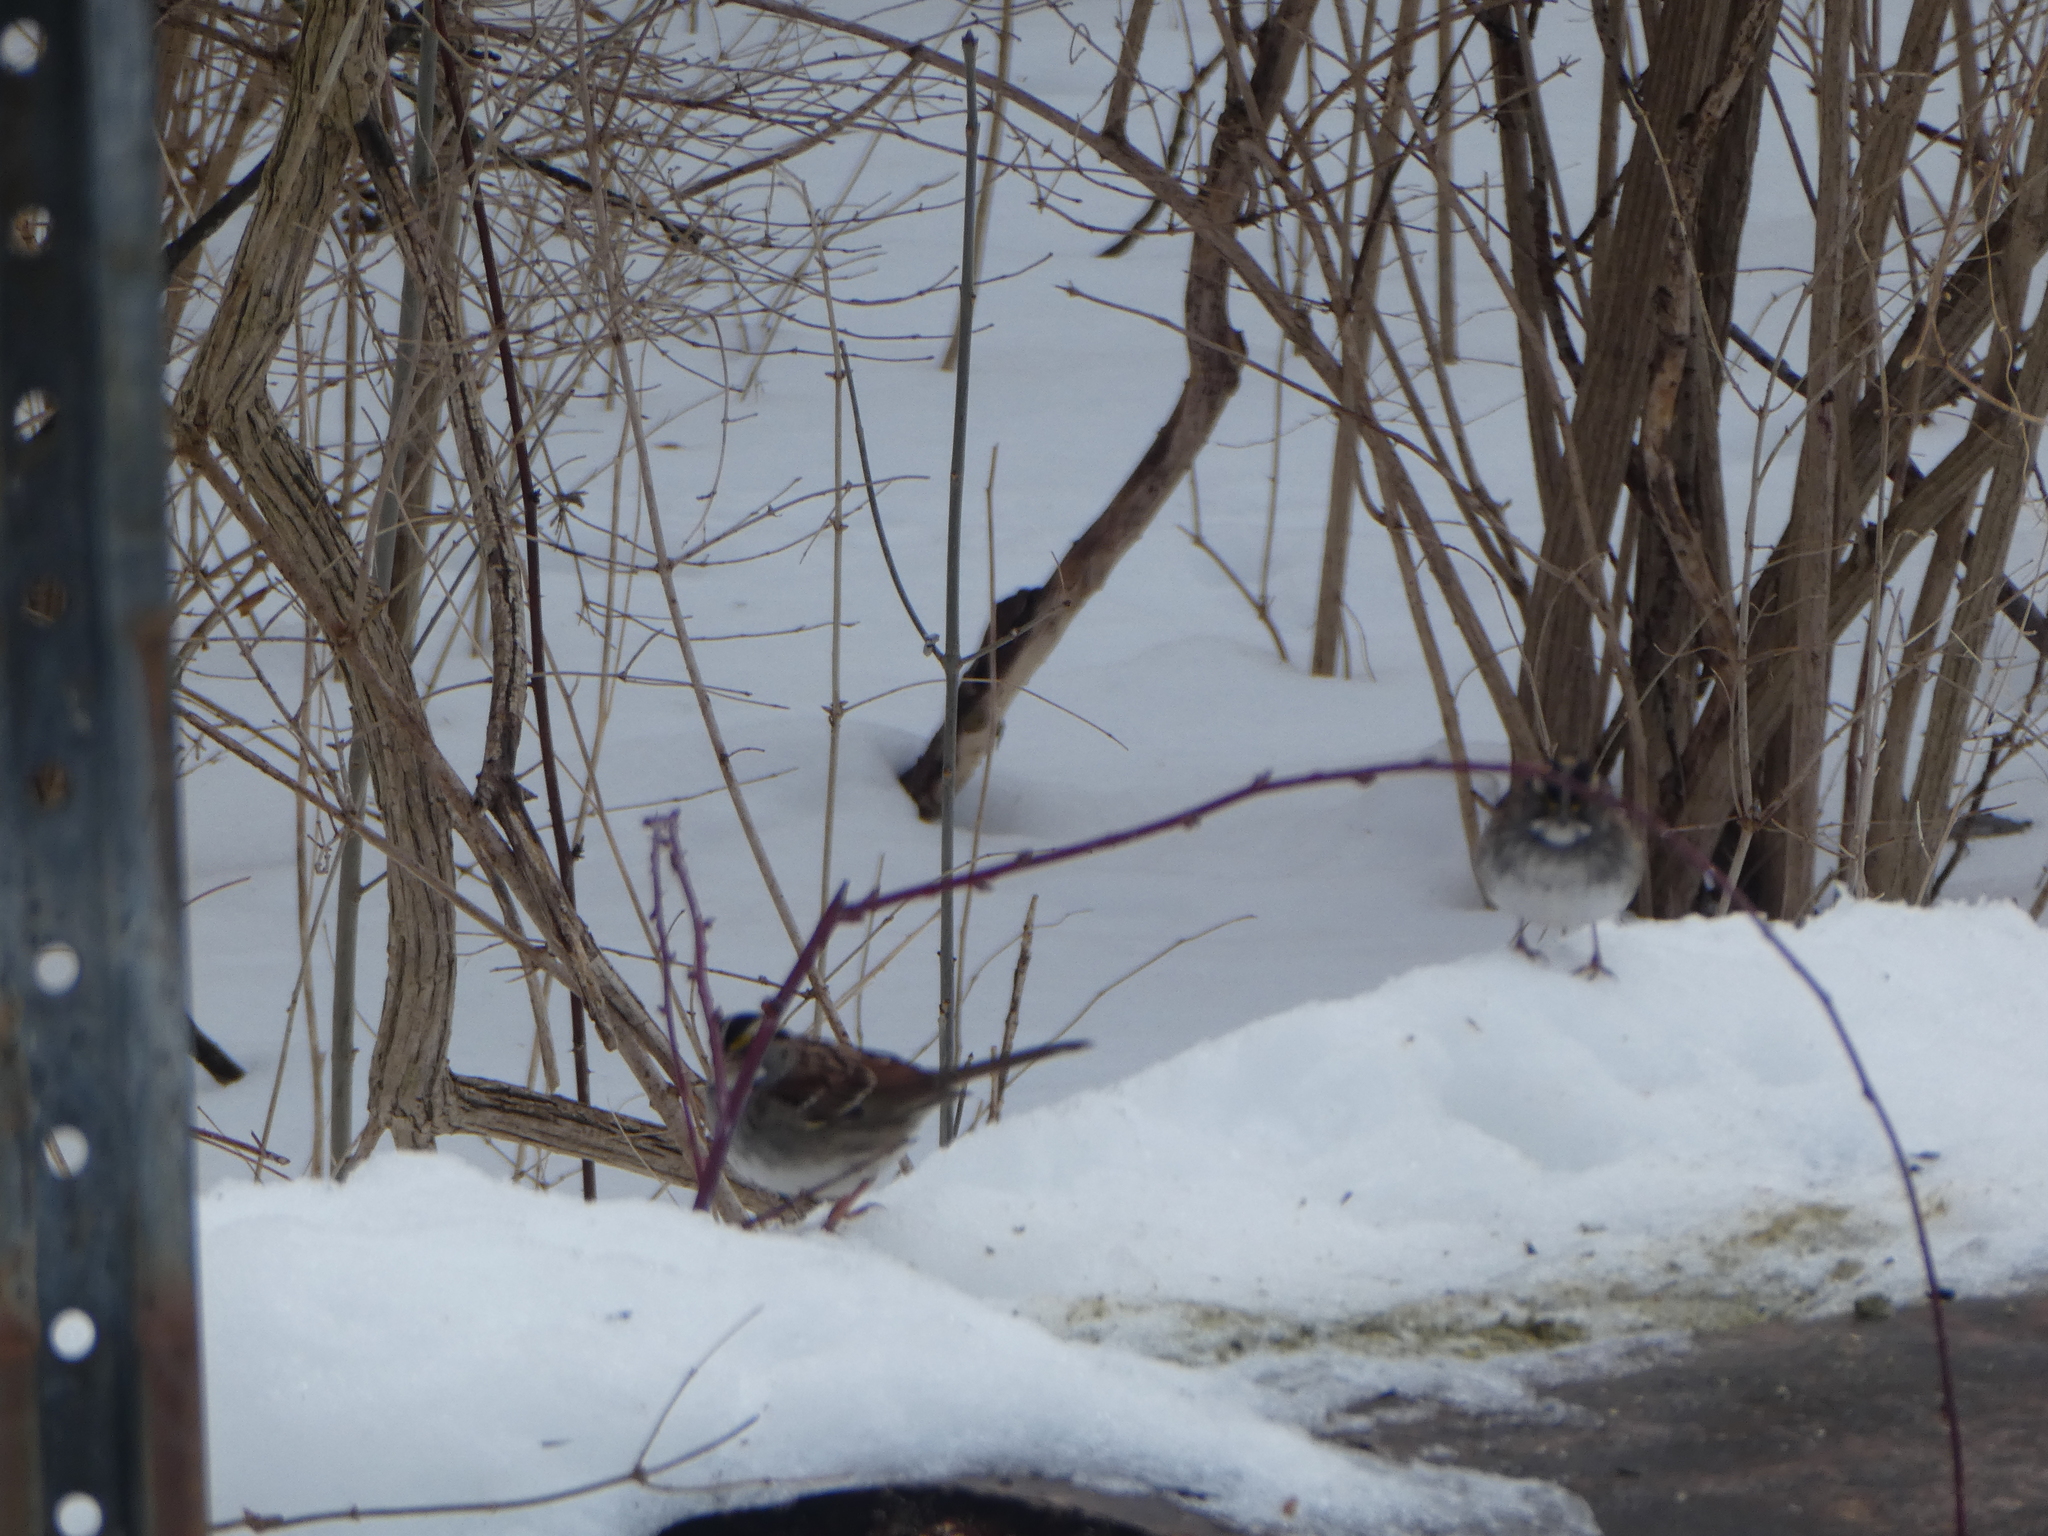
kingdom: Animalia
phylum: Chordata
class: Aves
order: Passeriformes
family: Passerellidae
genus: Zonotrichia
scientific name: Zonotrichia albicollis
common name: White-throated sparrow
